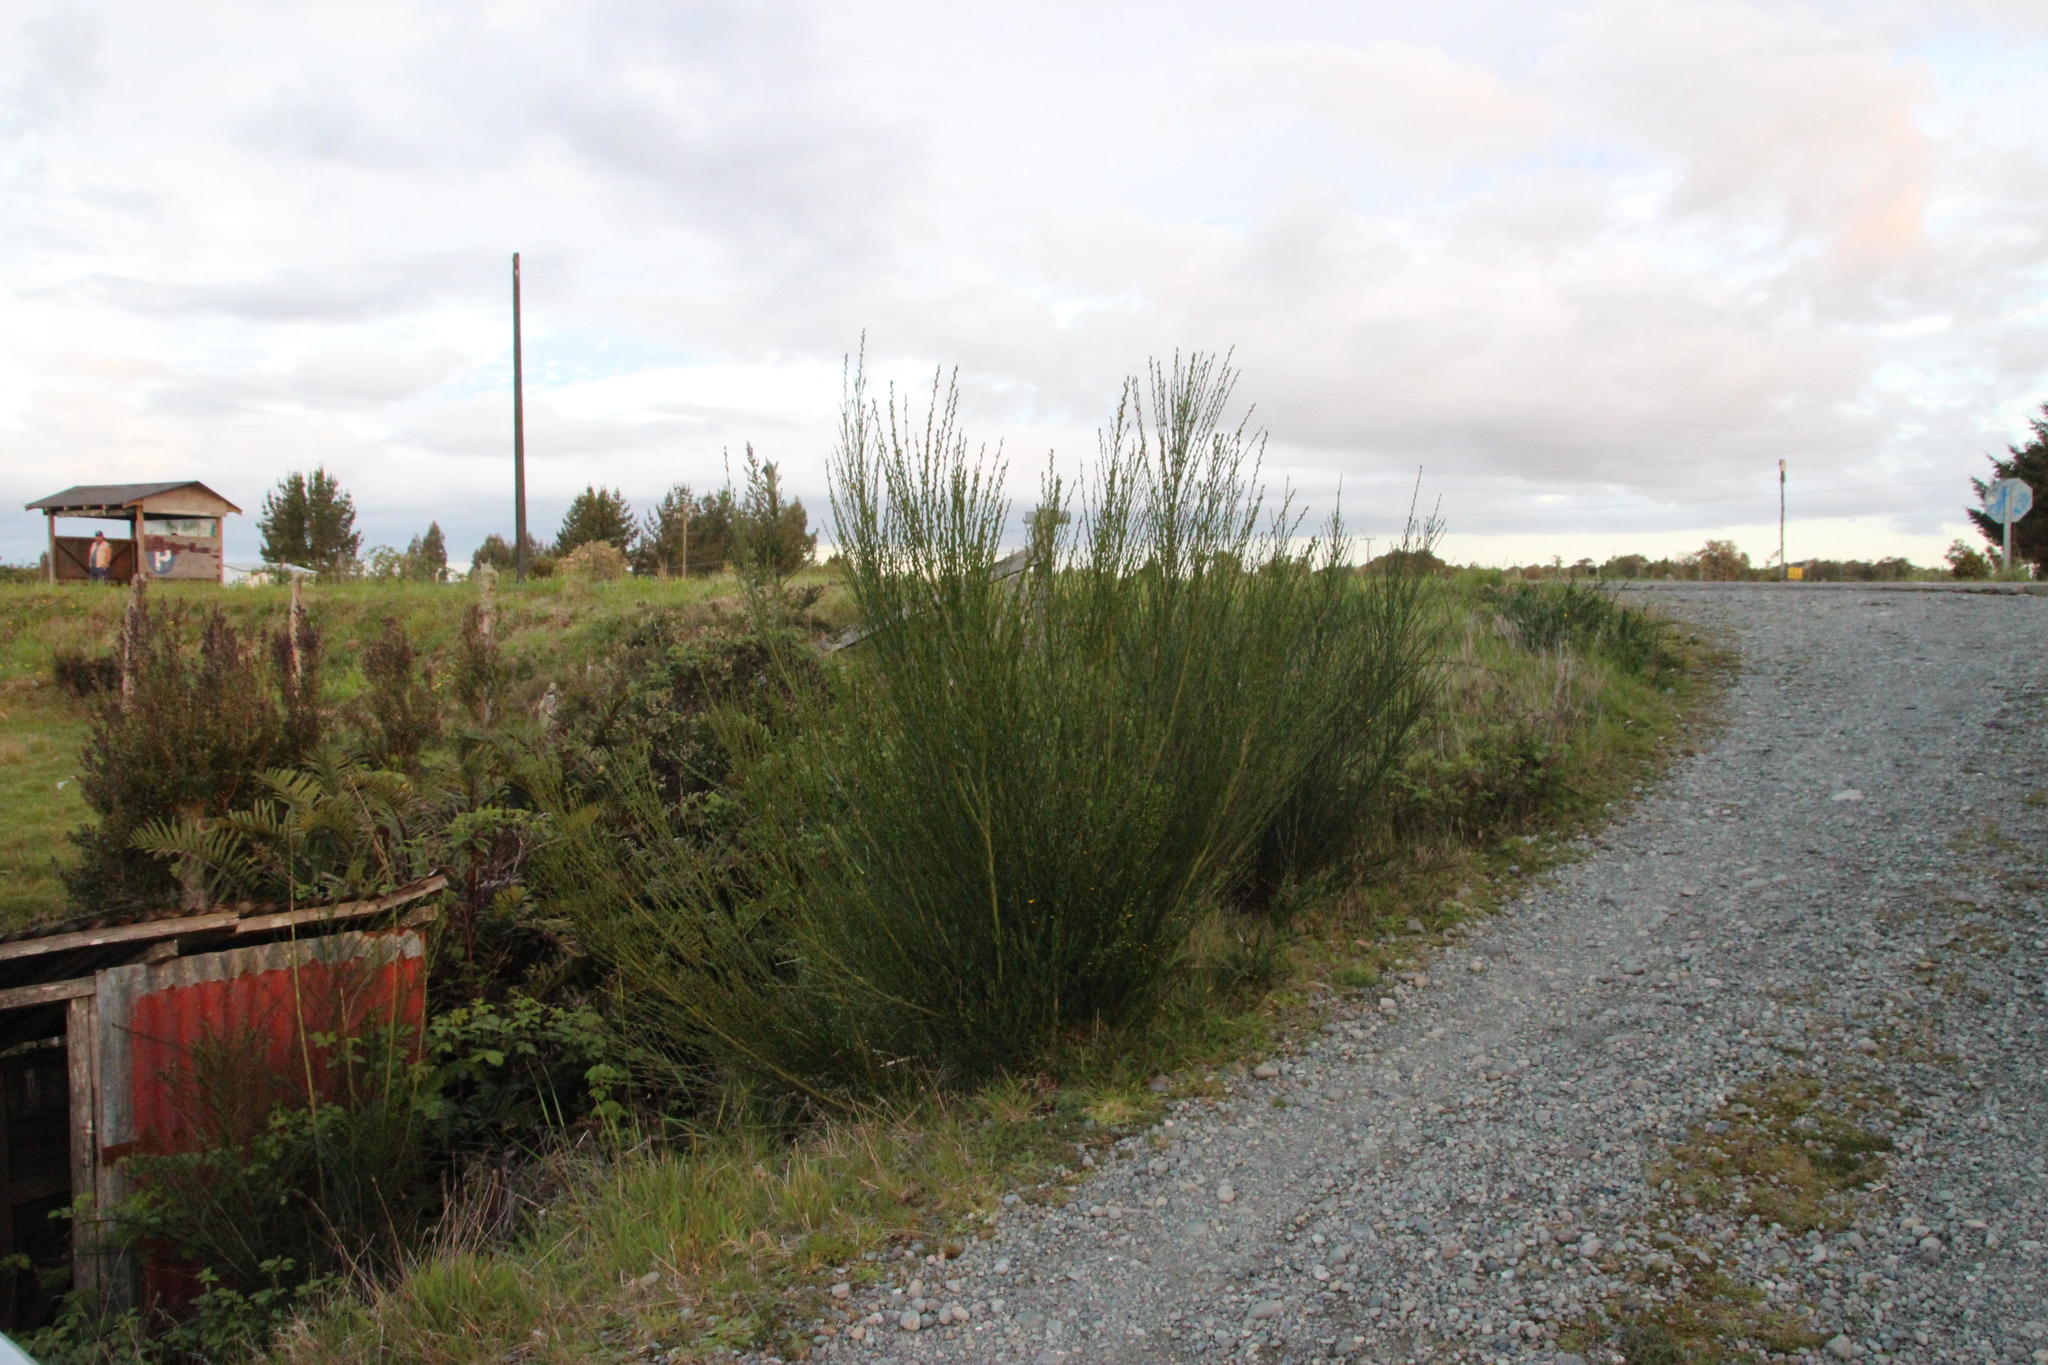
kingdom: Plantae
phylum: Tracheophyta
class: Magnoliopsida
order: Fabales
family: Fabaceae
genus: Cytisus
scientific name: Cytisus scoparius
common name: Scotch broom
